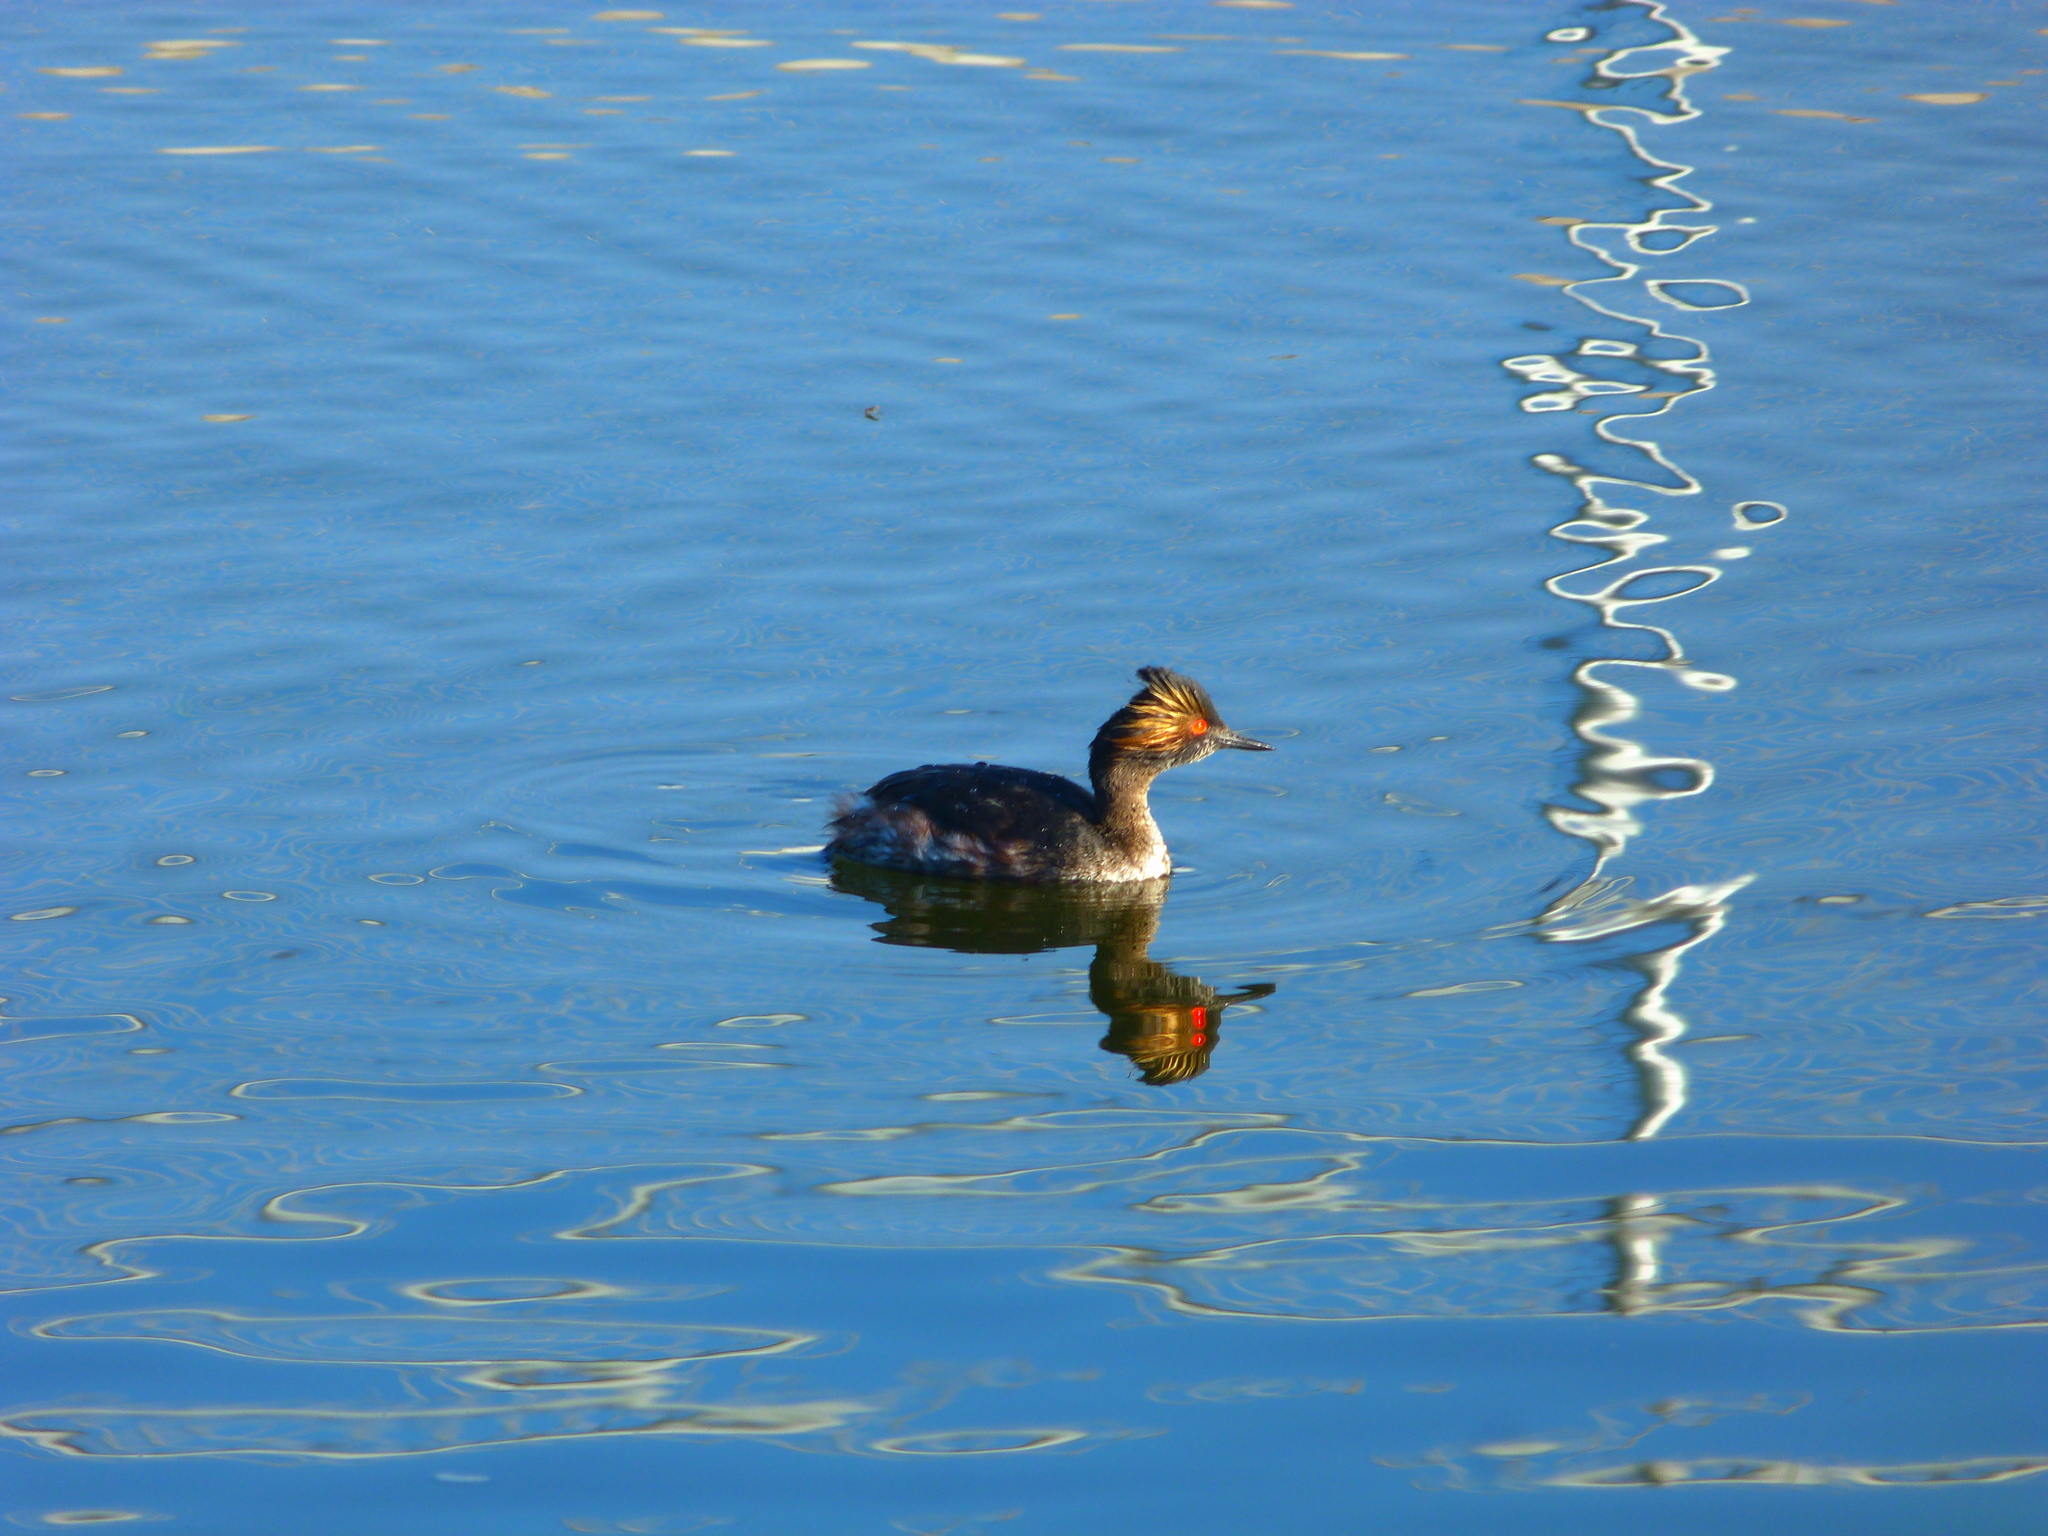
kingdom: Animalia
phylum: Chordata
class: Aves
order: Podicipediformes
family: Podicipedidae
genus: Podiceps
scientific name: Podiceps nigricollis
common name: Black-necked grebe
